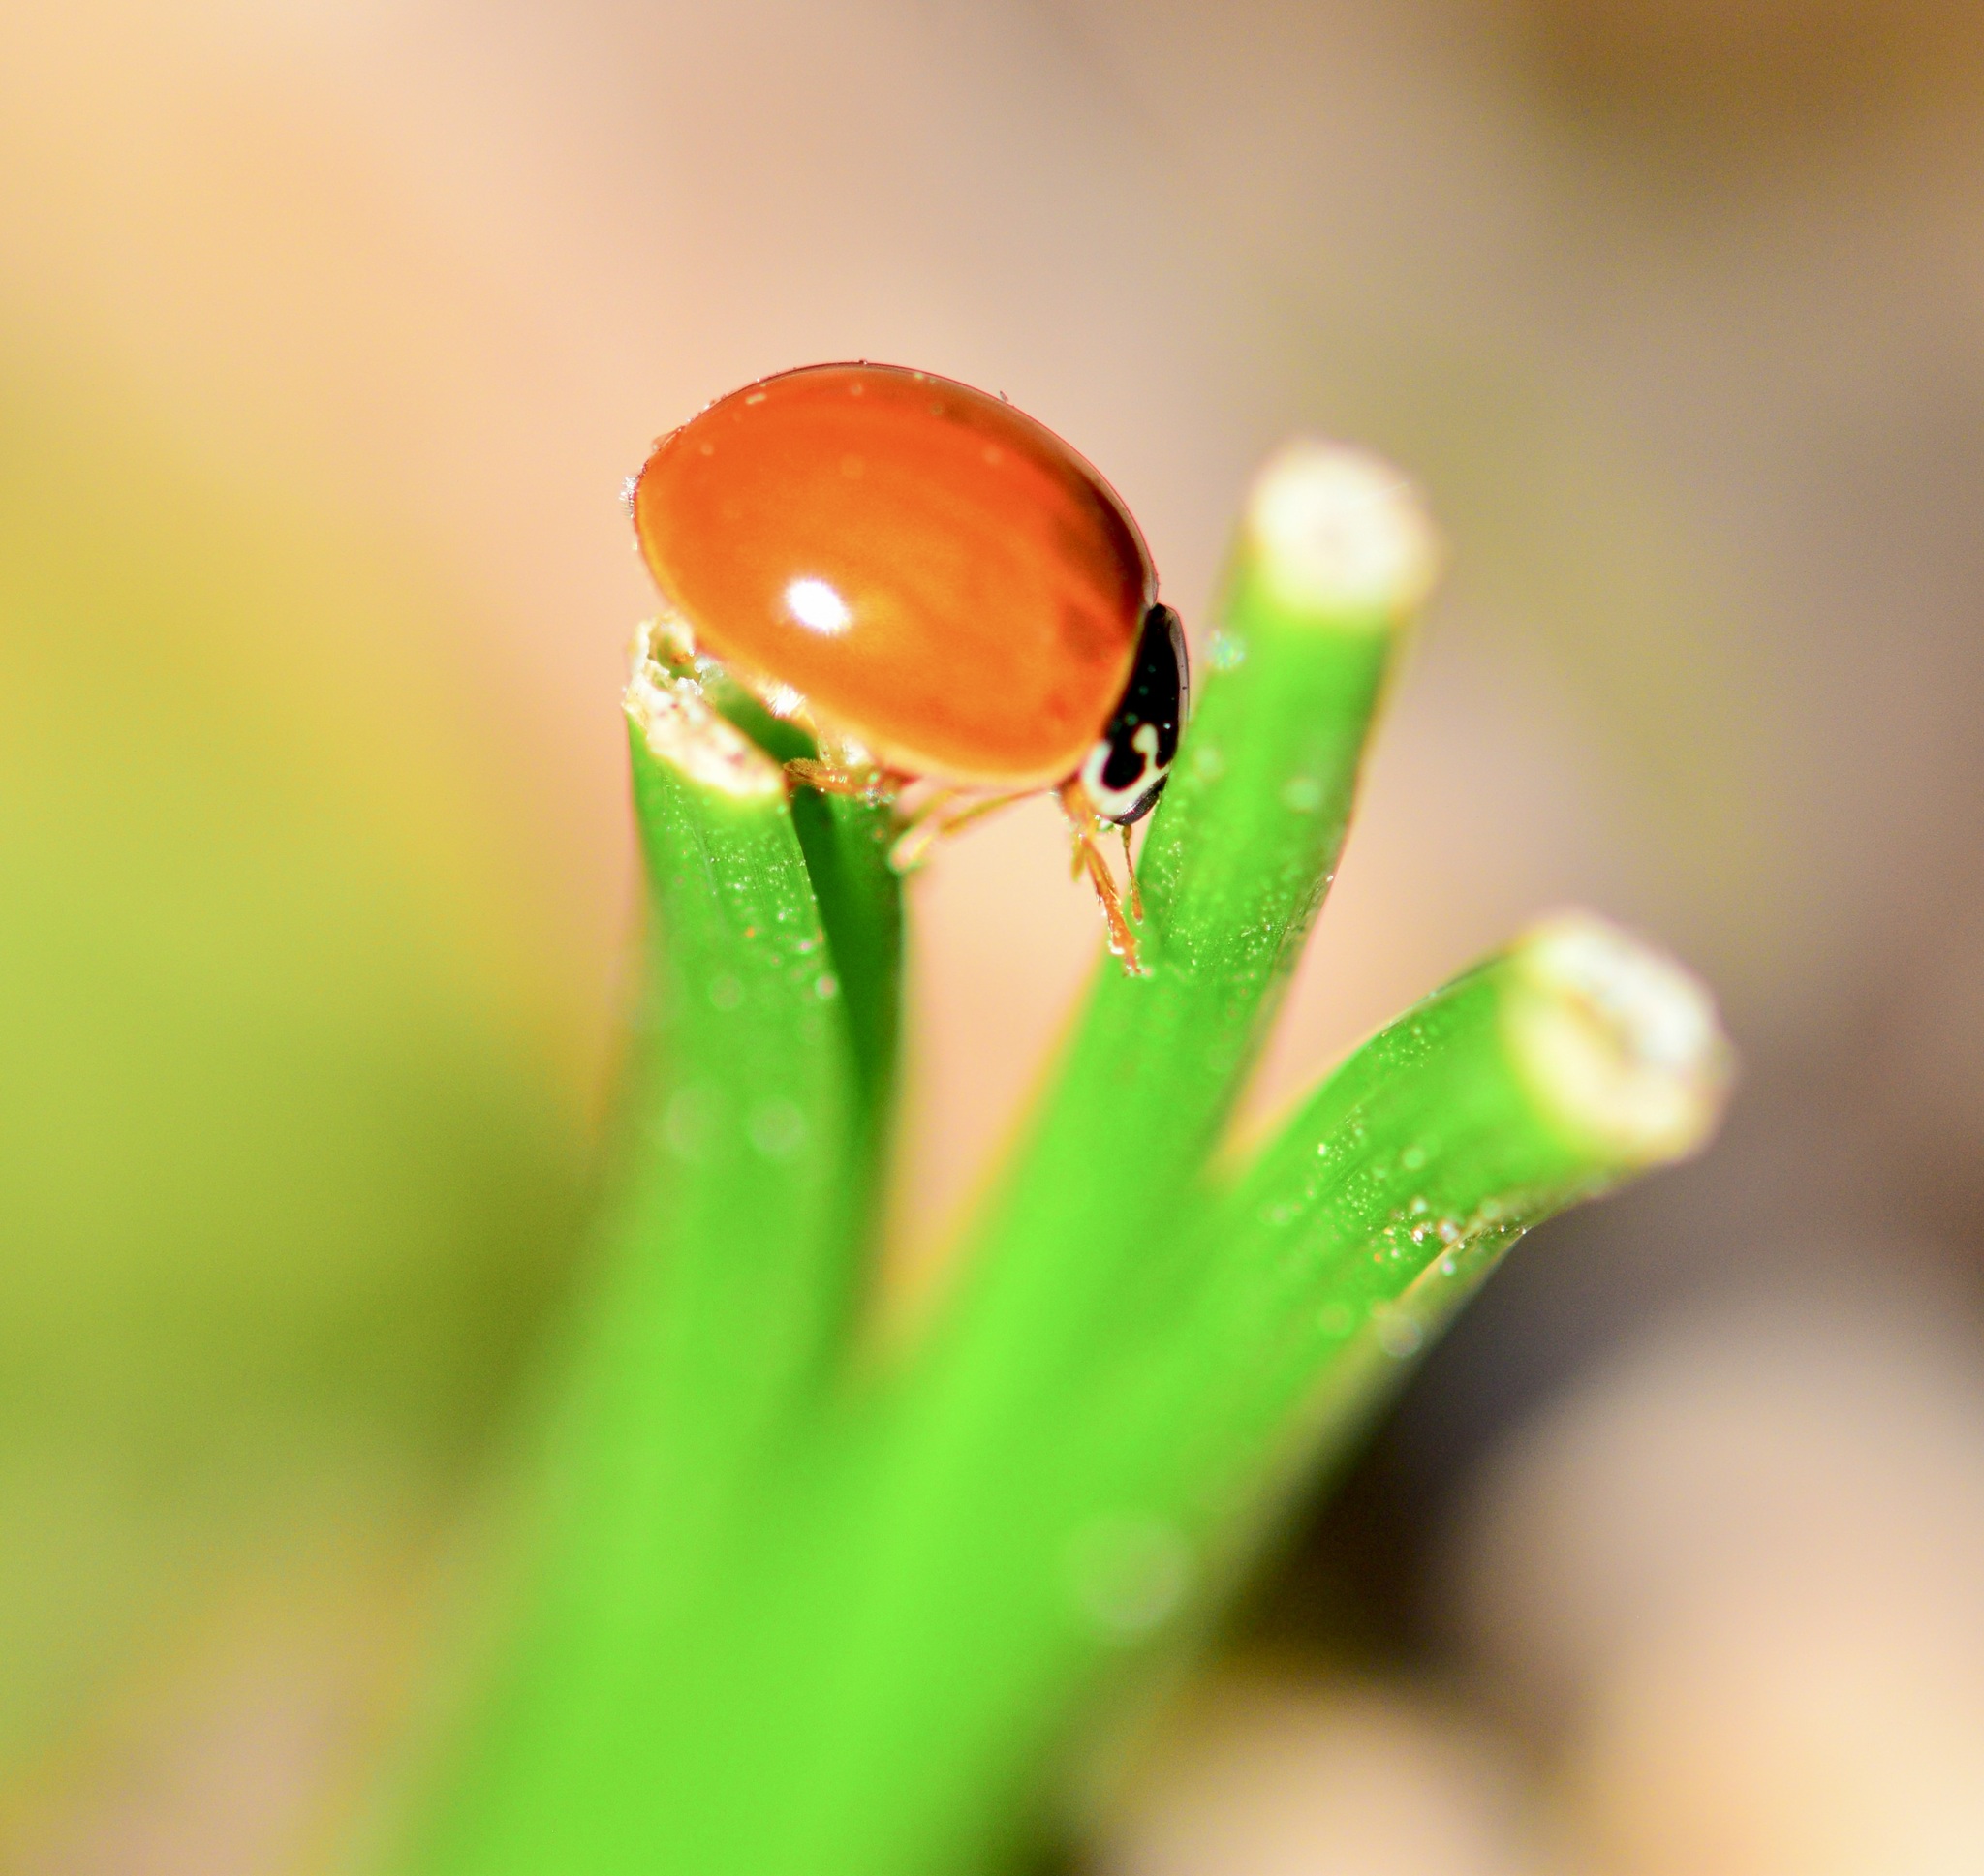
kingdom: Animalia
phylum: Arthropoda
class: Insecta
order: Coleoptera
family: Coccinellidae
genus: Cycloneda
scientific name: Cycloneda munda
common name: Polished lady beetle
